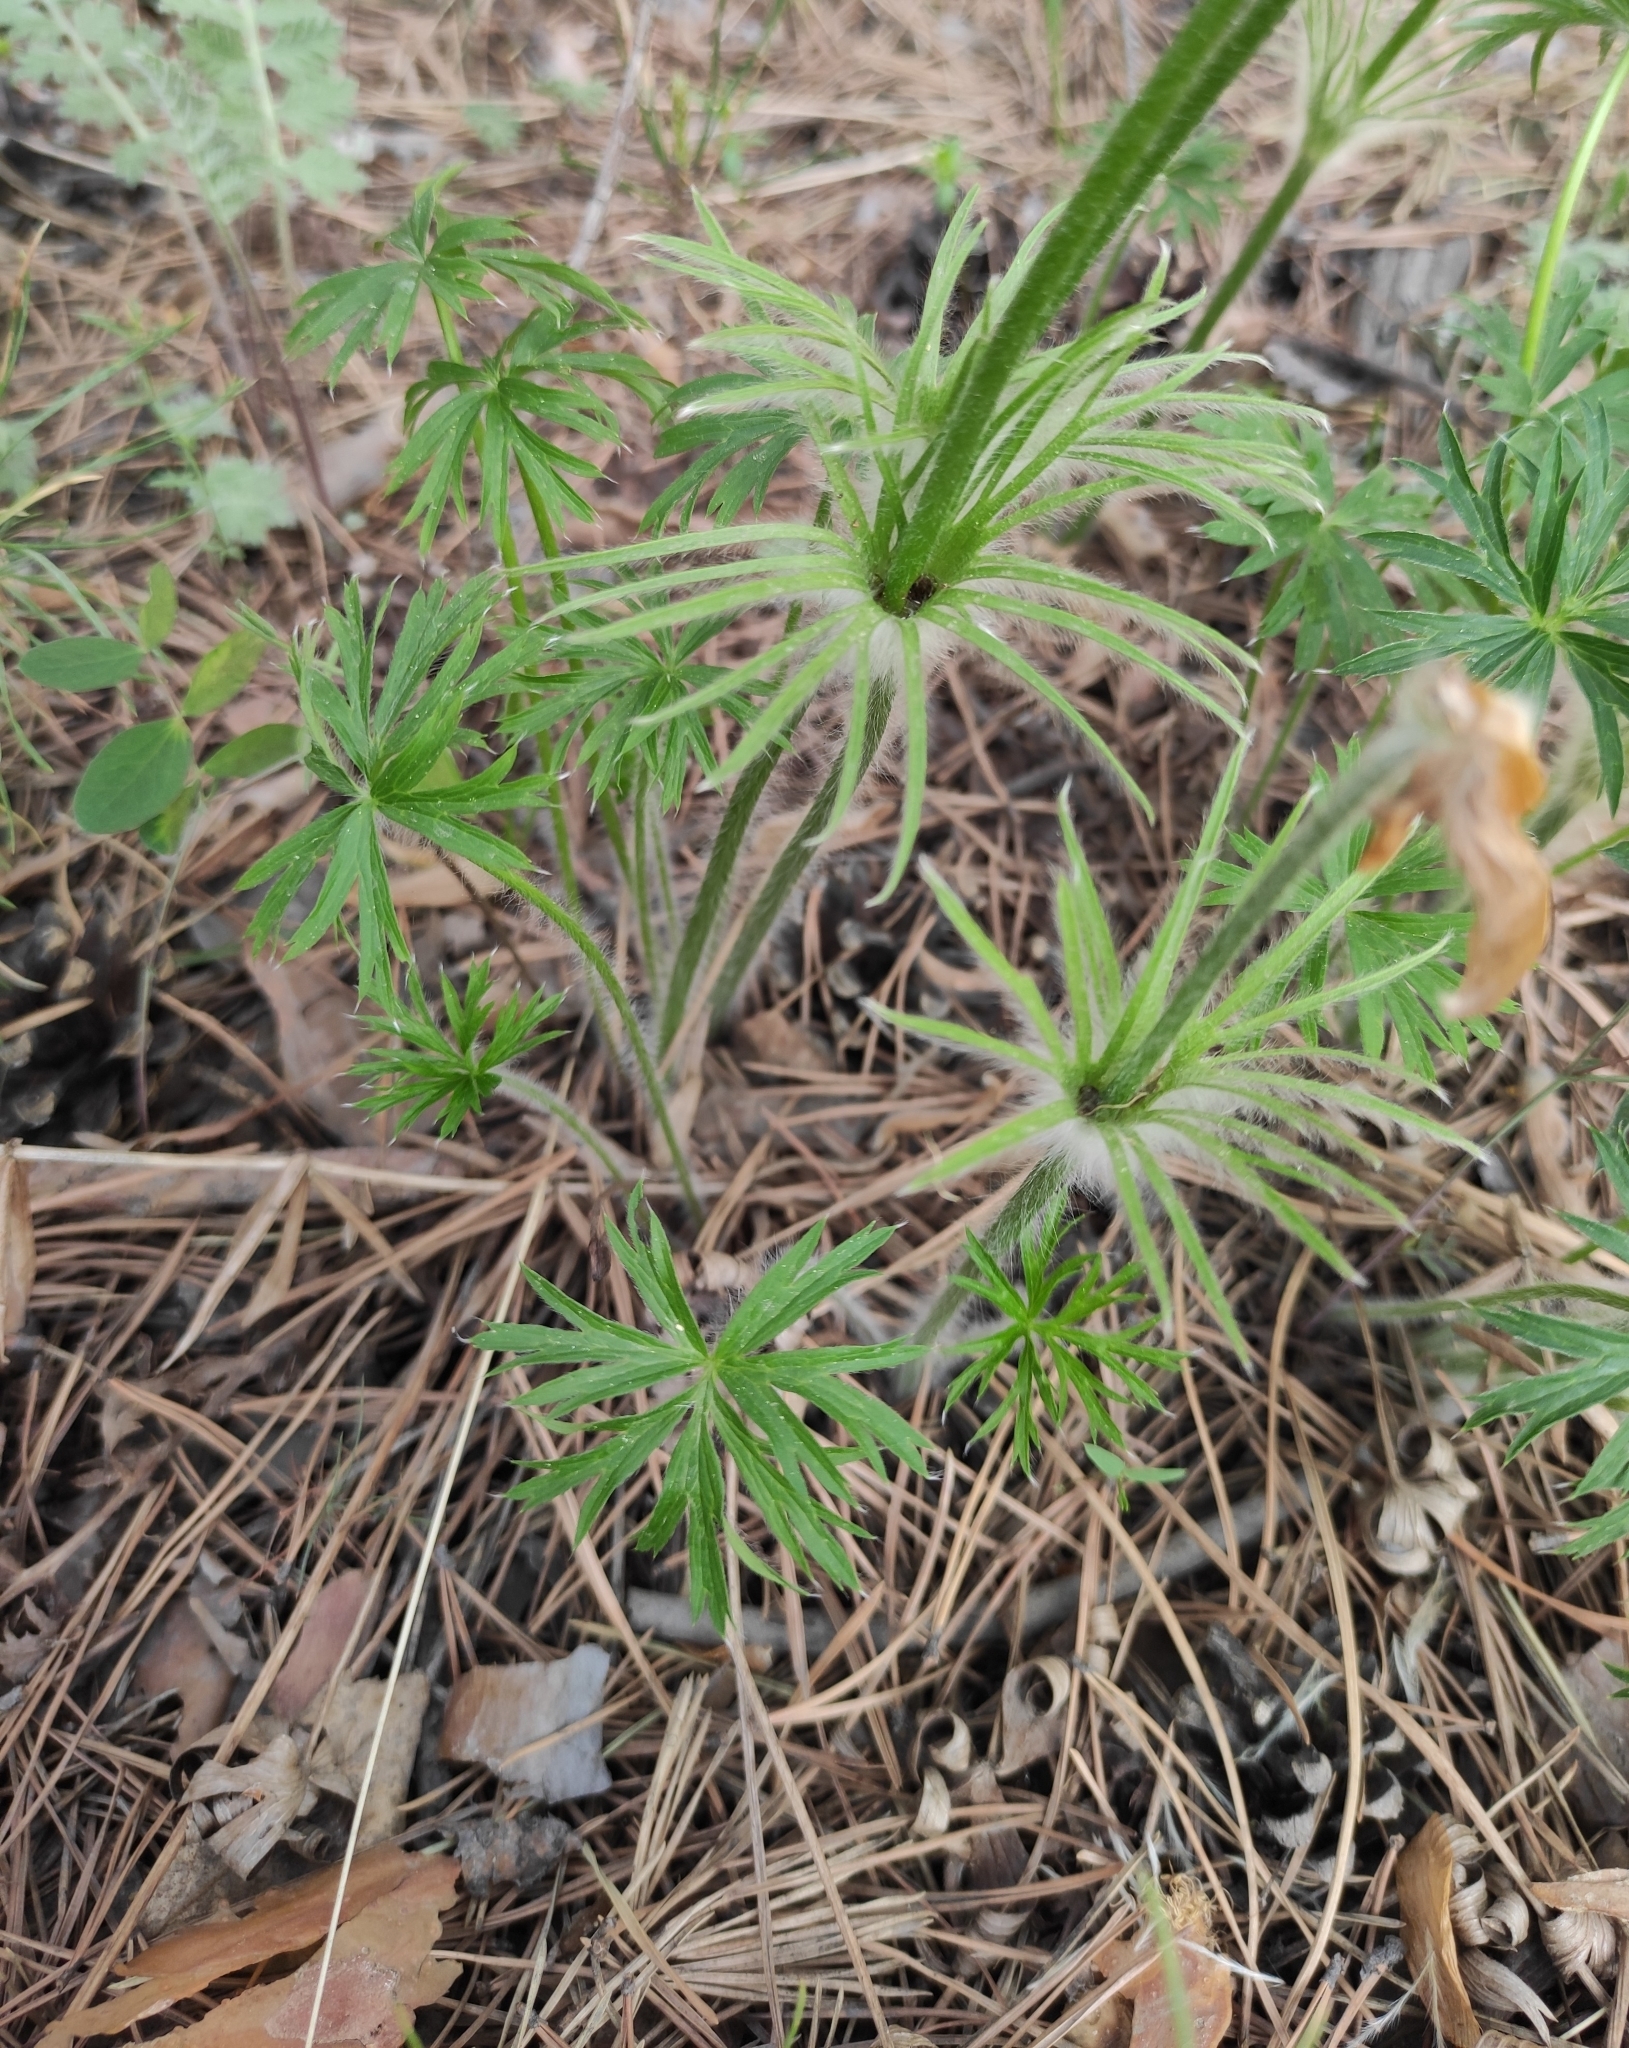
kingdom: Plantae
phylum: Tracheophyta
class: Magnoliopsida
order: Ranunculales
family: Ranunculaceae
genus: Pulsatilla
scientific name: Pulsatilla patens
